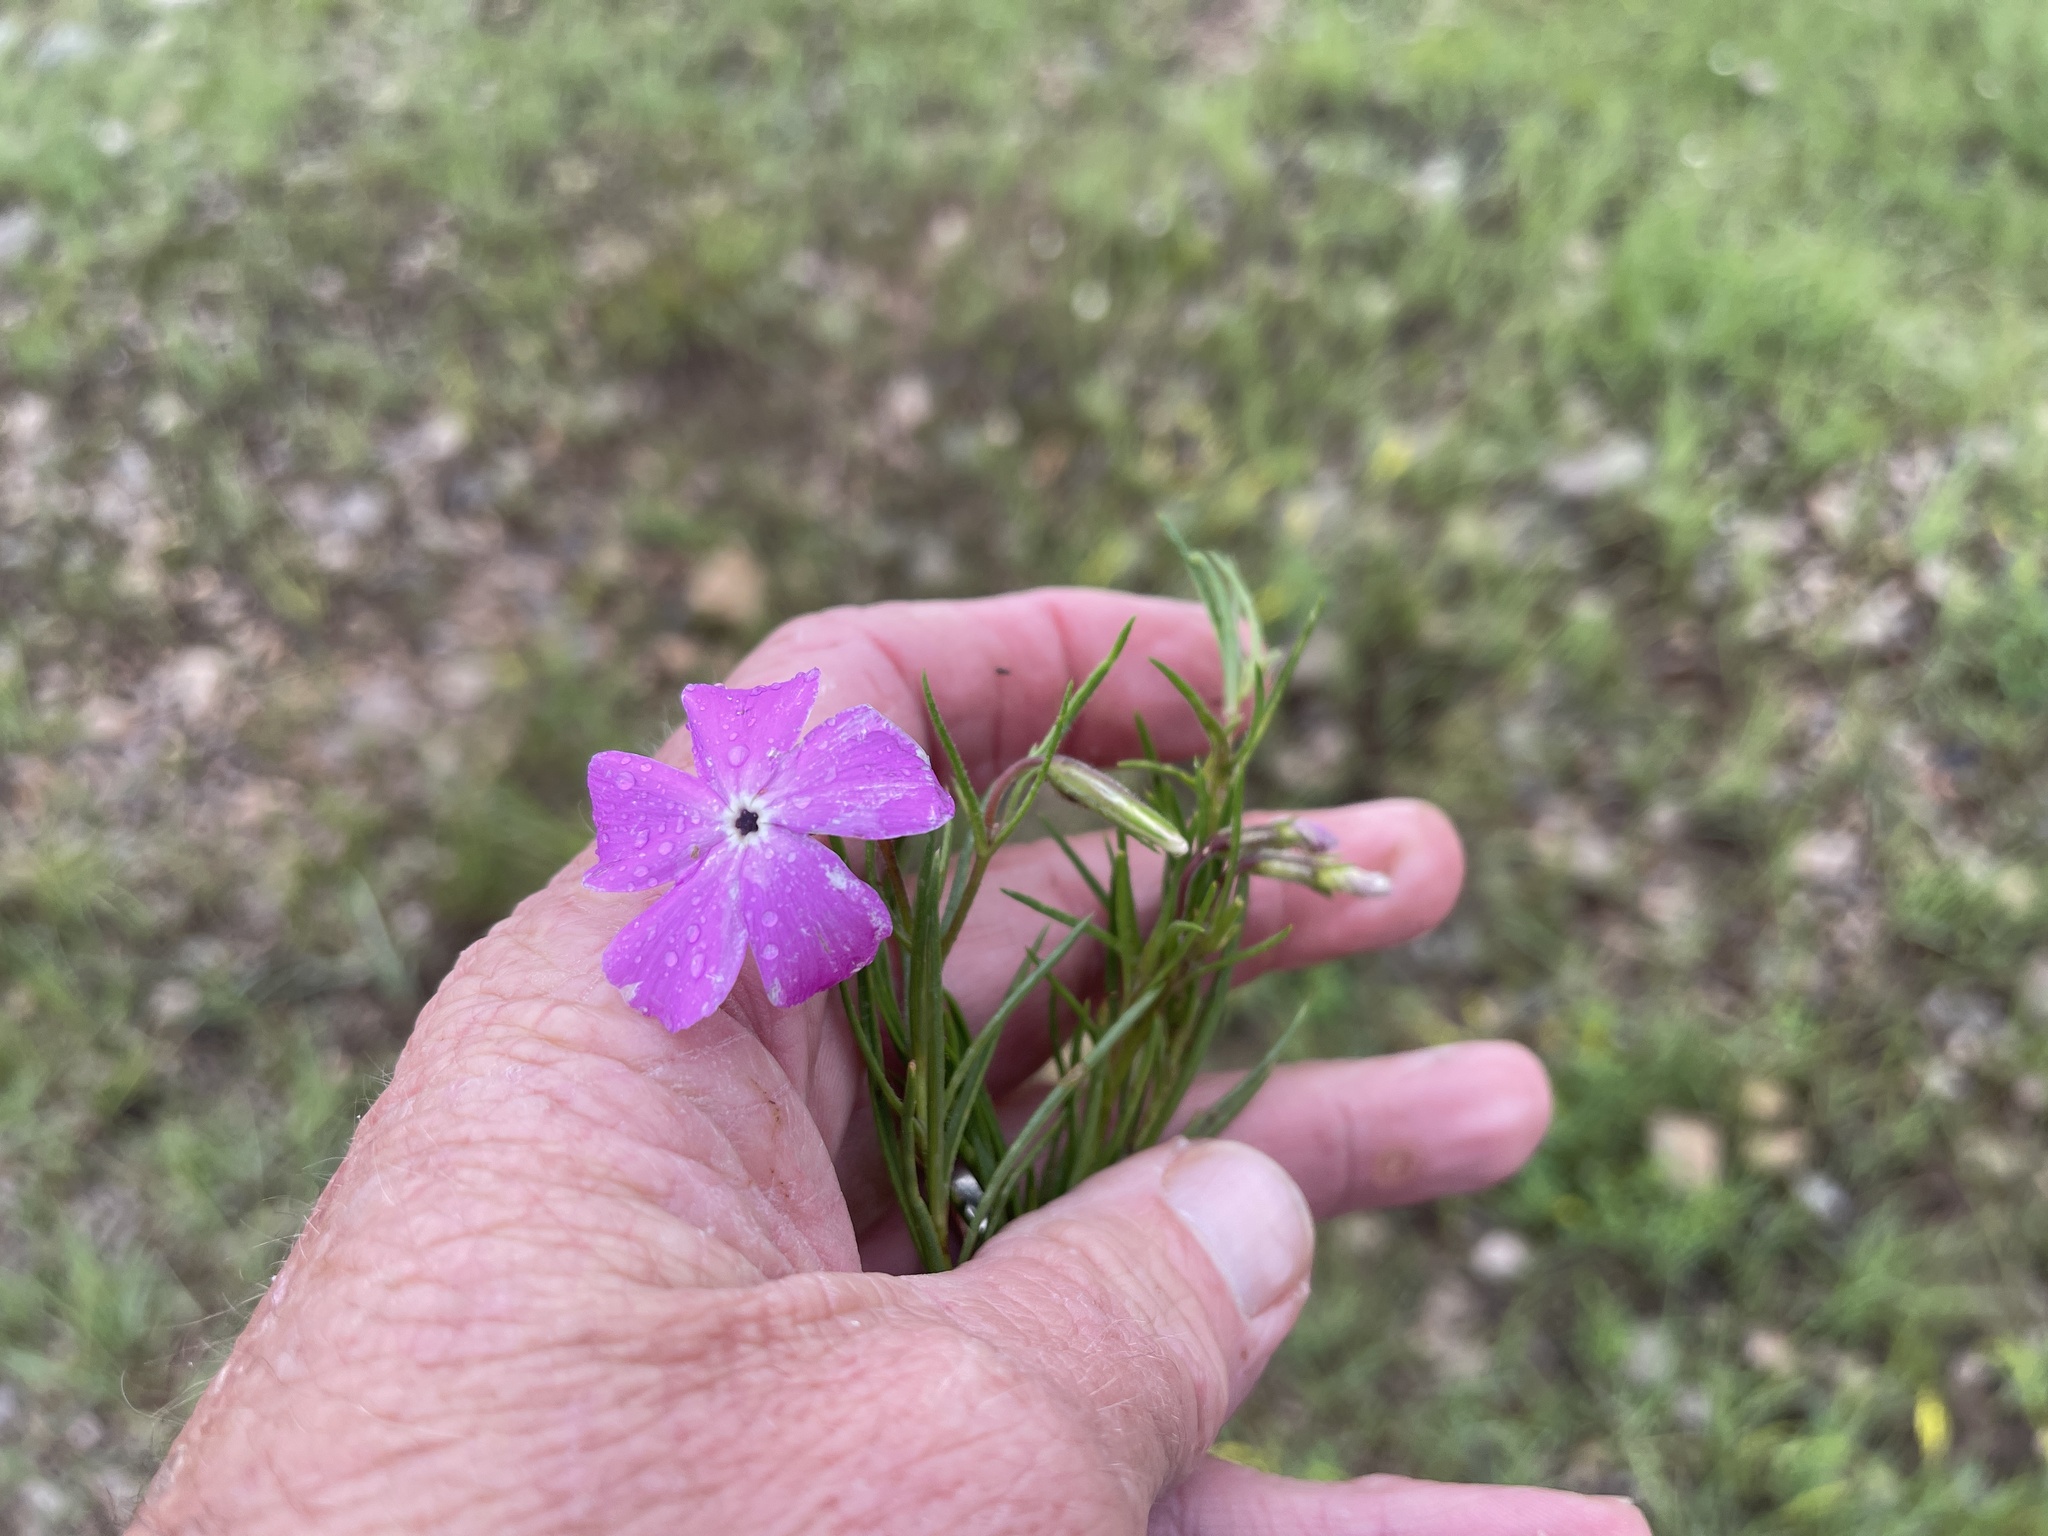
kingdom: Plantae
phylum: Tracheophyta
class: Magnoliopsida
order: Ericales
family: Polemoniaceae
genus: Phlox
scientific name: Phlox nana
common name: Santa fe phlox
